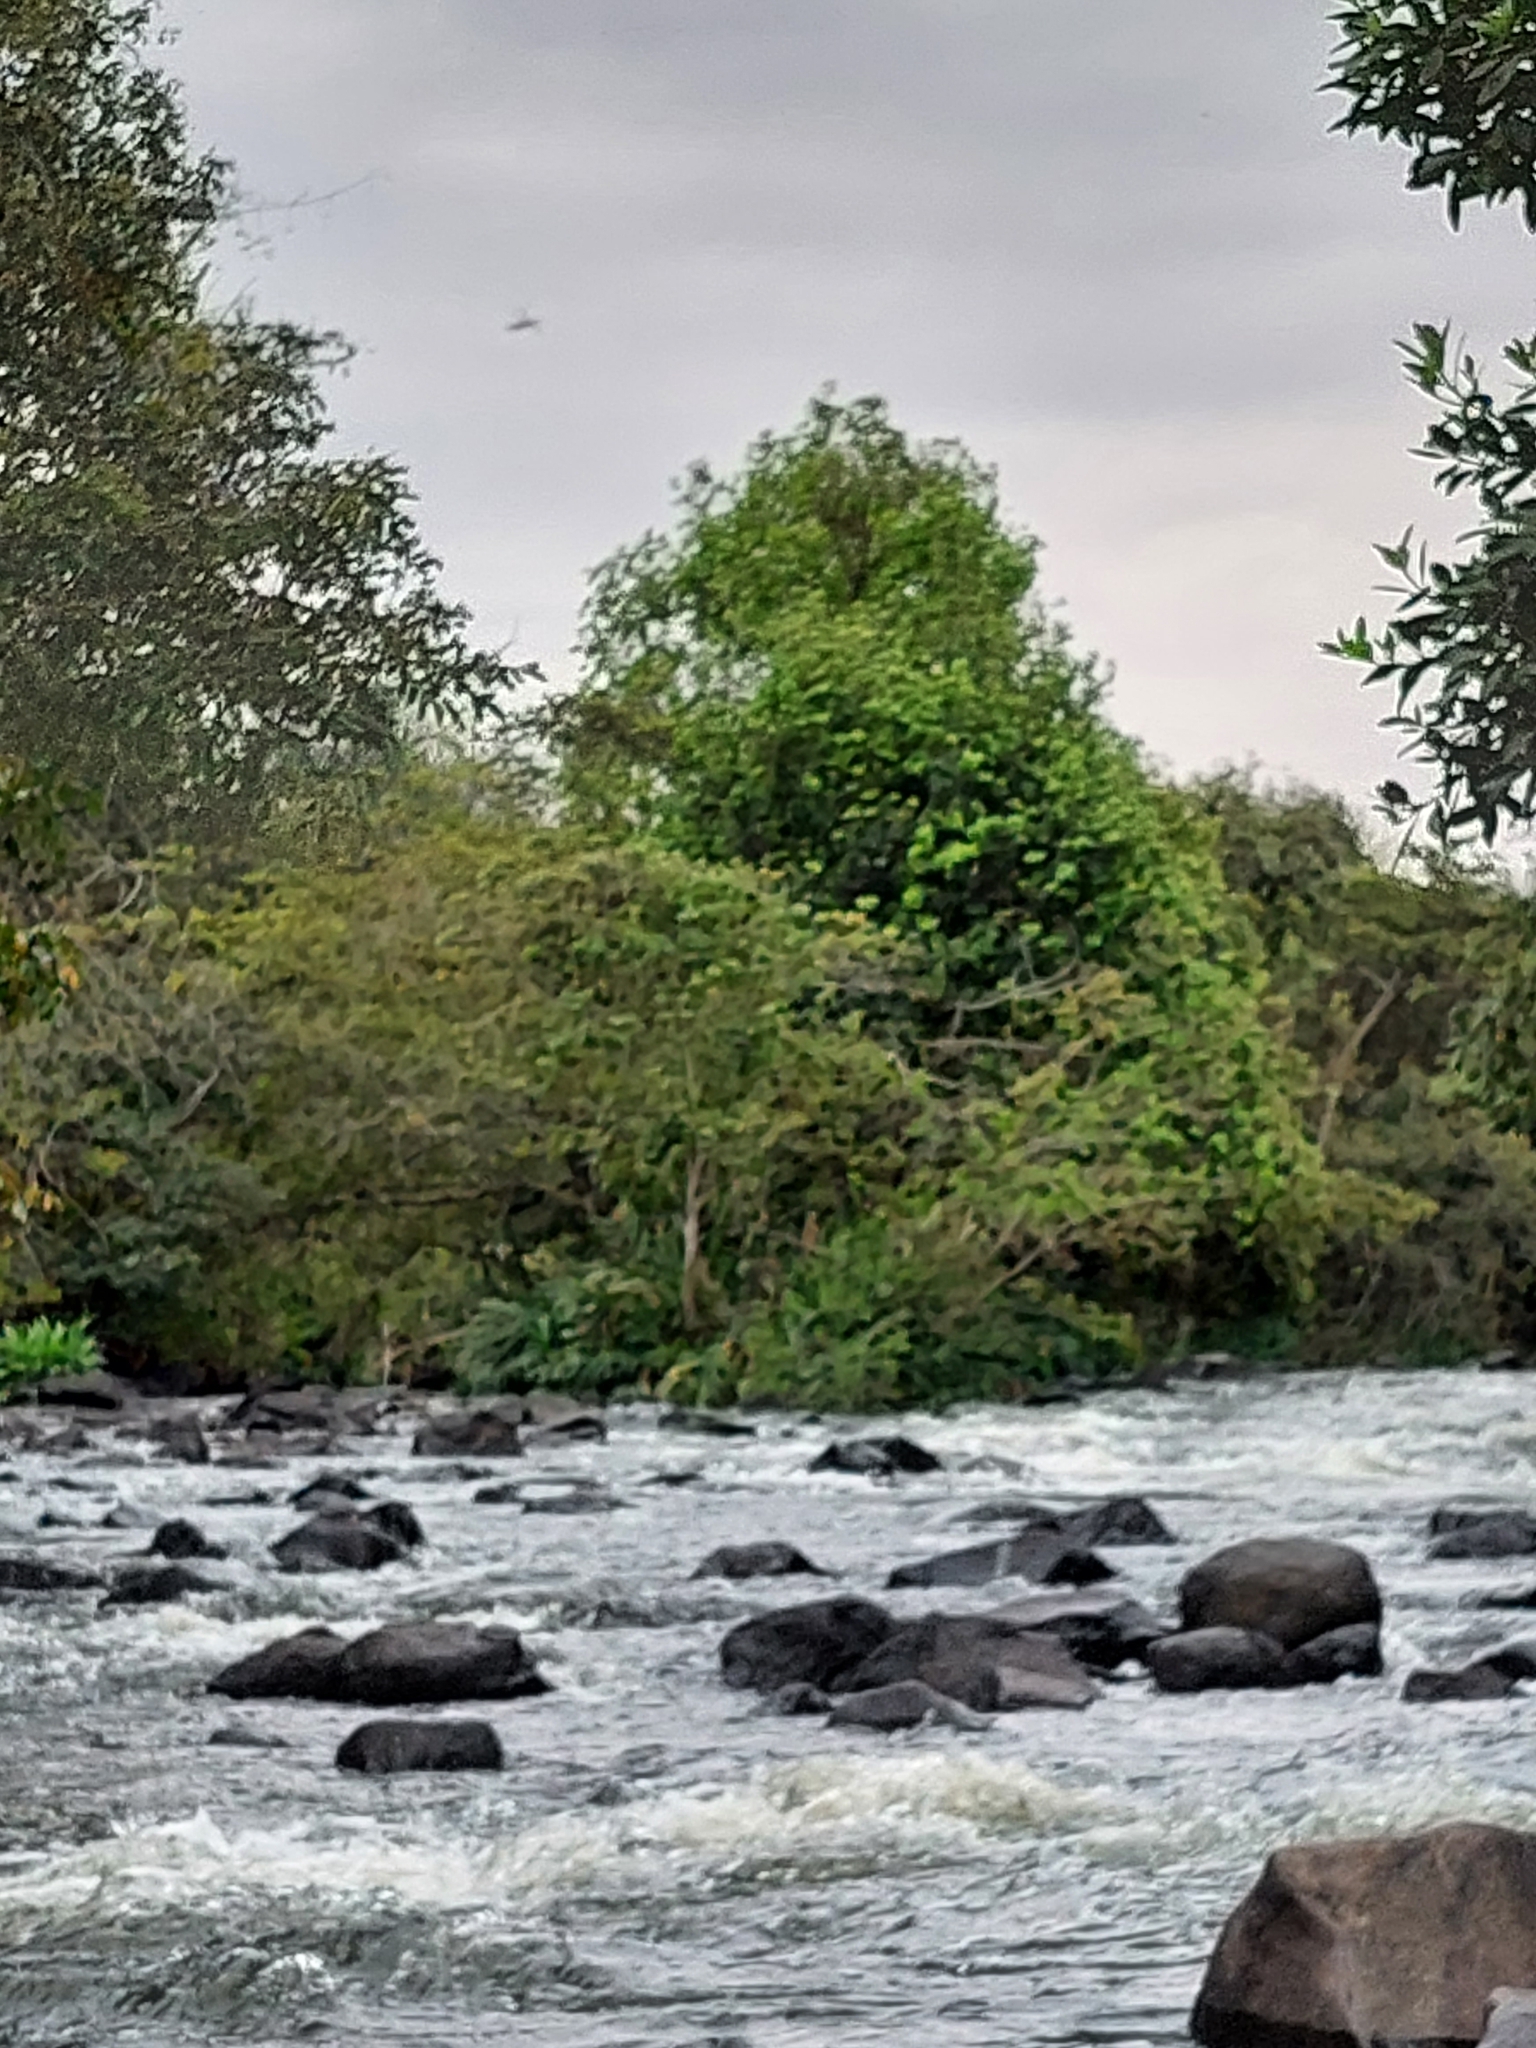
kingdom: Plantae
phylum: Tracheophyta
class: Liliopsida
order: Zingiberales
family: Zingiberaceae
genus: Hedychium
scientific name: Hedychium coronarium
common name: White garland-lily
